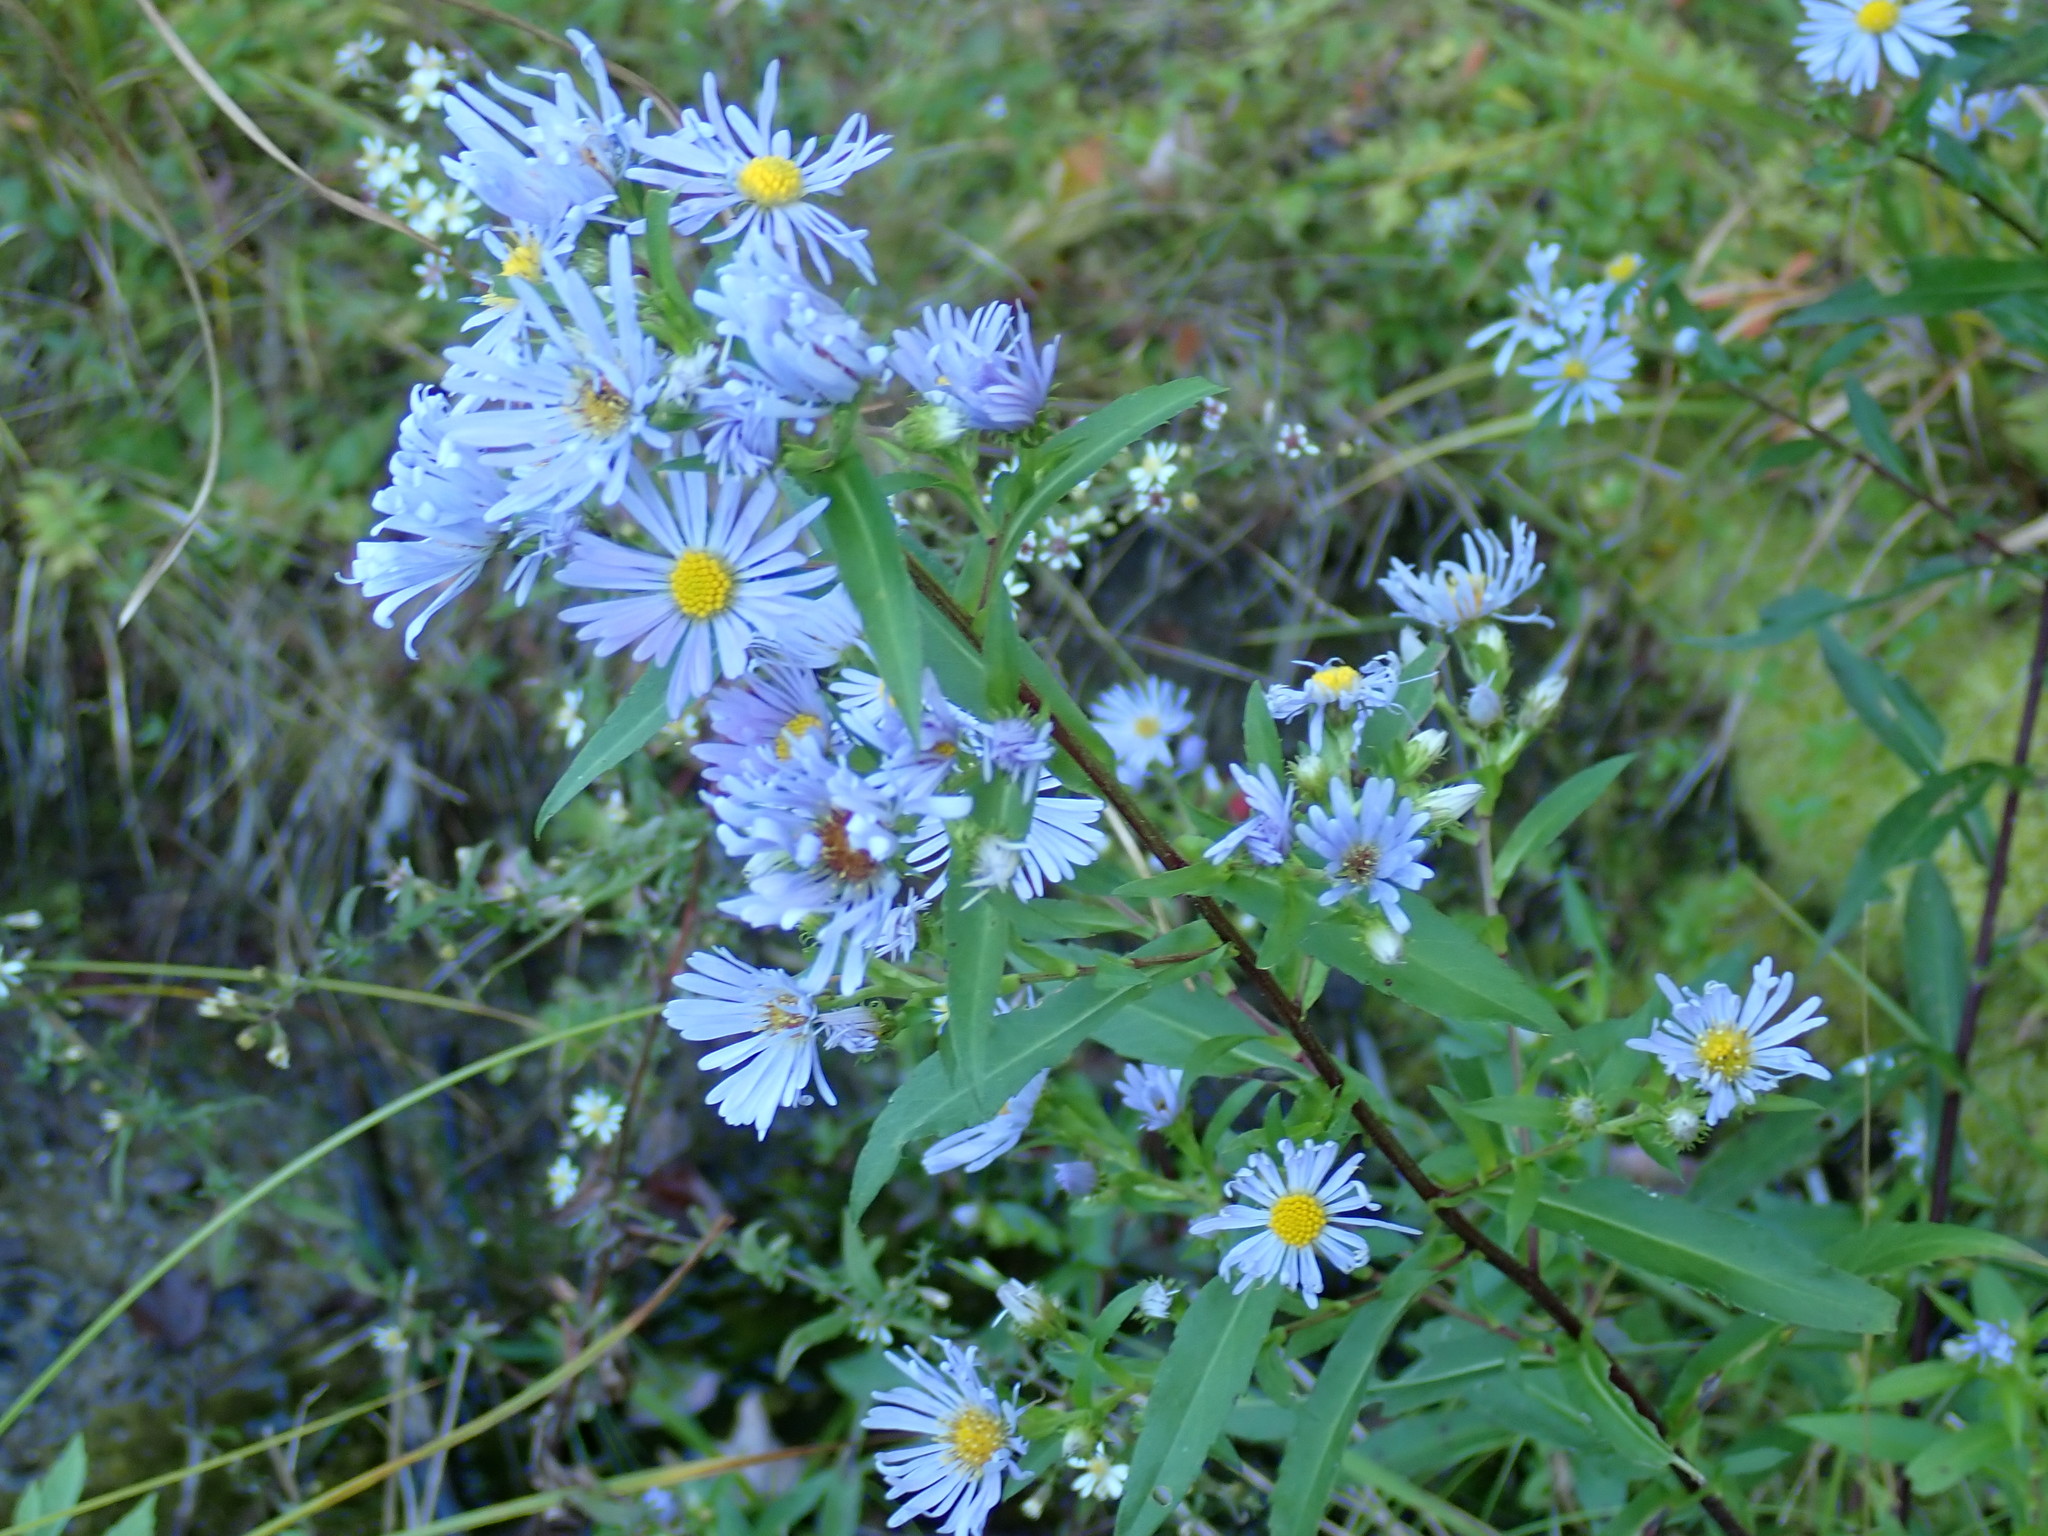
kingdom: Plantae
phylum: Tracheophyta
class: Magnoliopsida
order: Asterales
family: Asteraceae
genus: Symphyotrichum
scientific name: Symphyotrichum puniceum
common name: Bog aster
